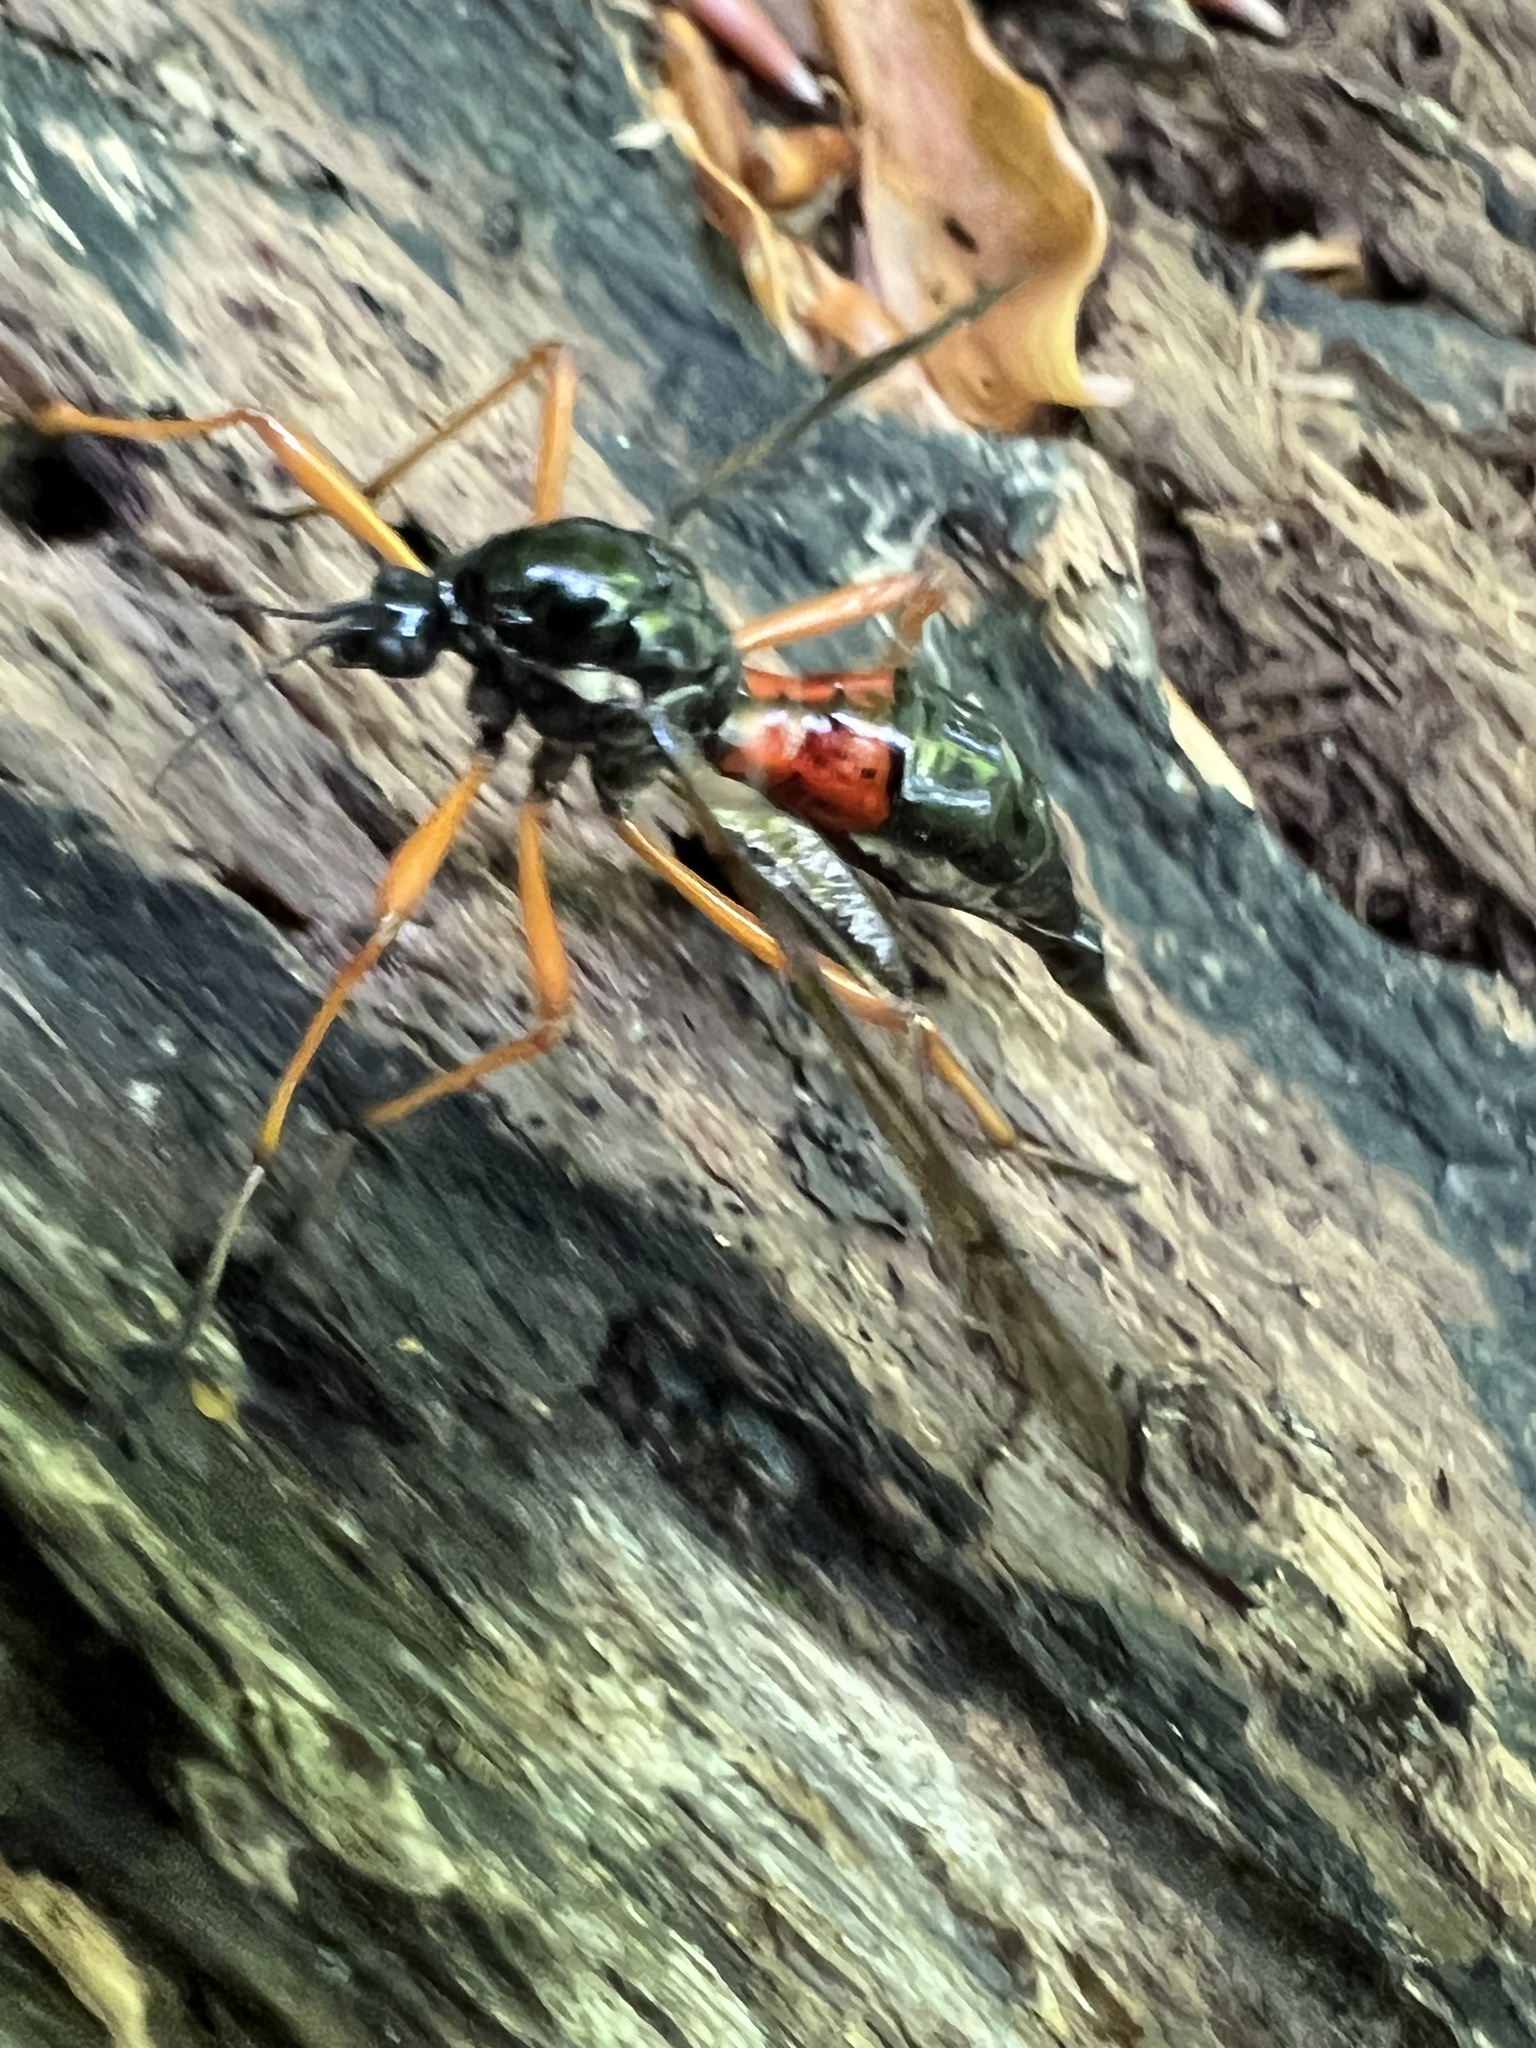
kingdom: Animalia
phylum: Arthropoda
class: Insecta
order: Diptera
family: Tipulidae
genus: Tanyptera
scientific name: Tanyptera dorsalis
